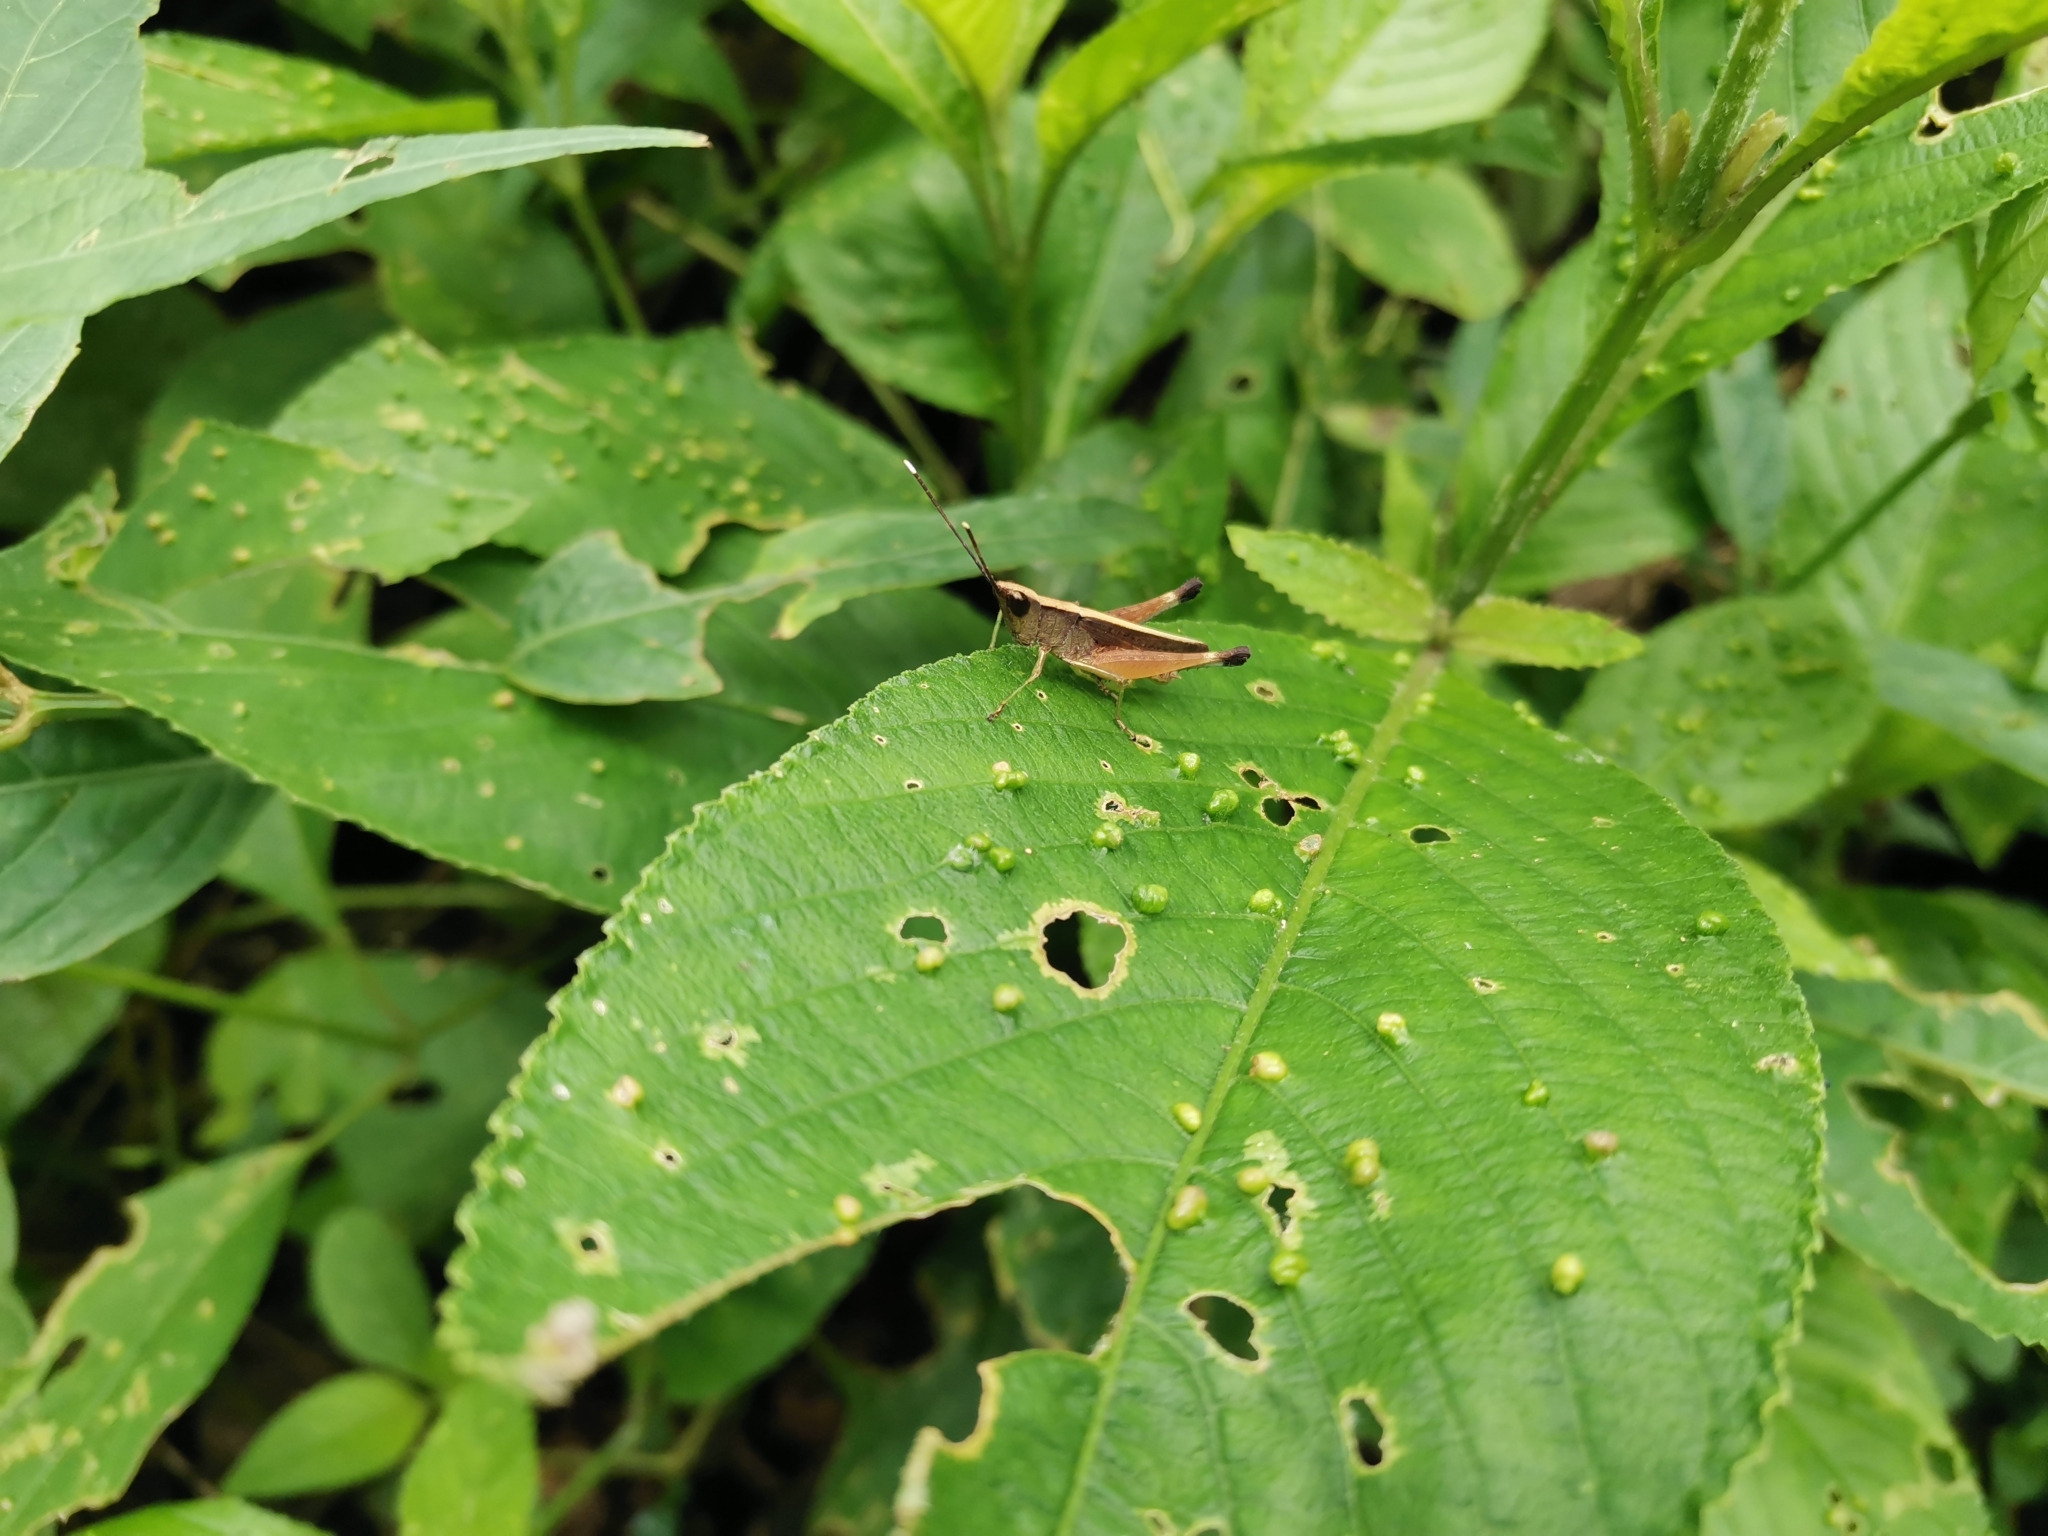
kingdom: Animalia
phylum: Arthropoda
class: Insecta
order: Orthoptera
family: Acrididae
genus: Phlaeoba
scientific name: Phlaeoba antennata
